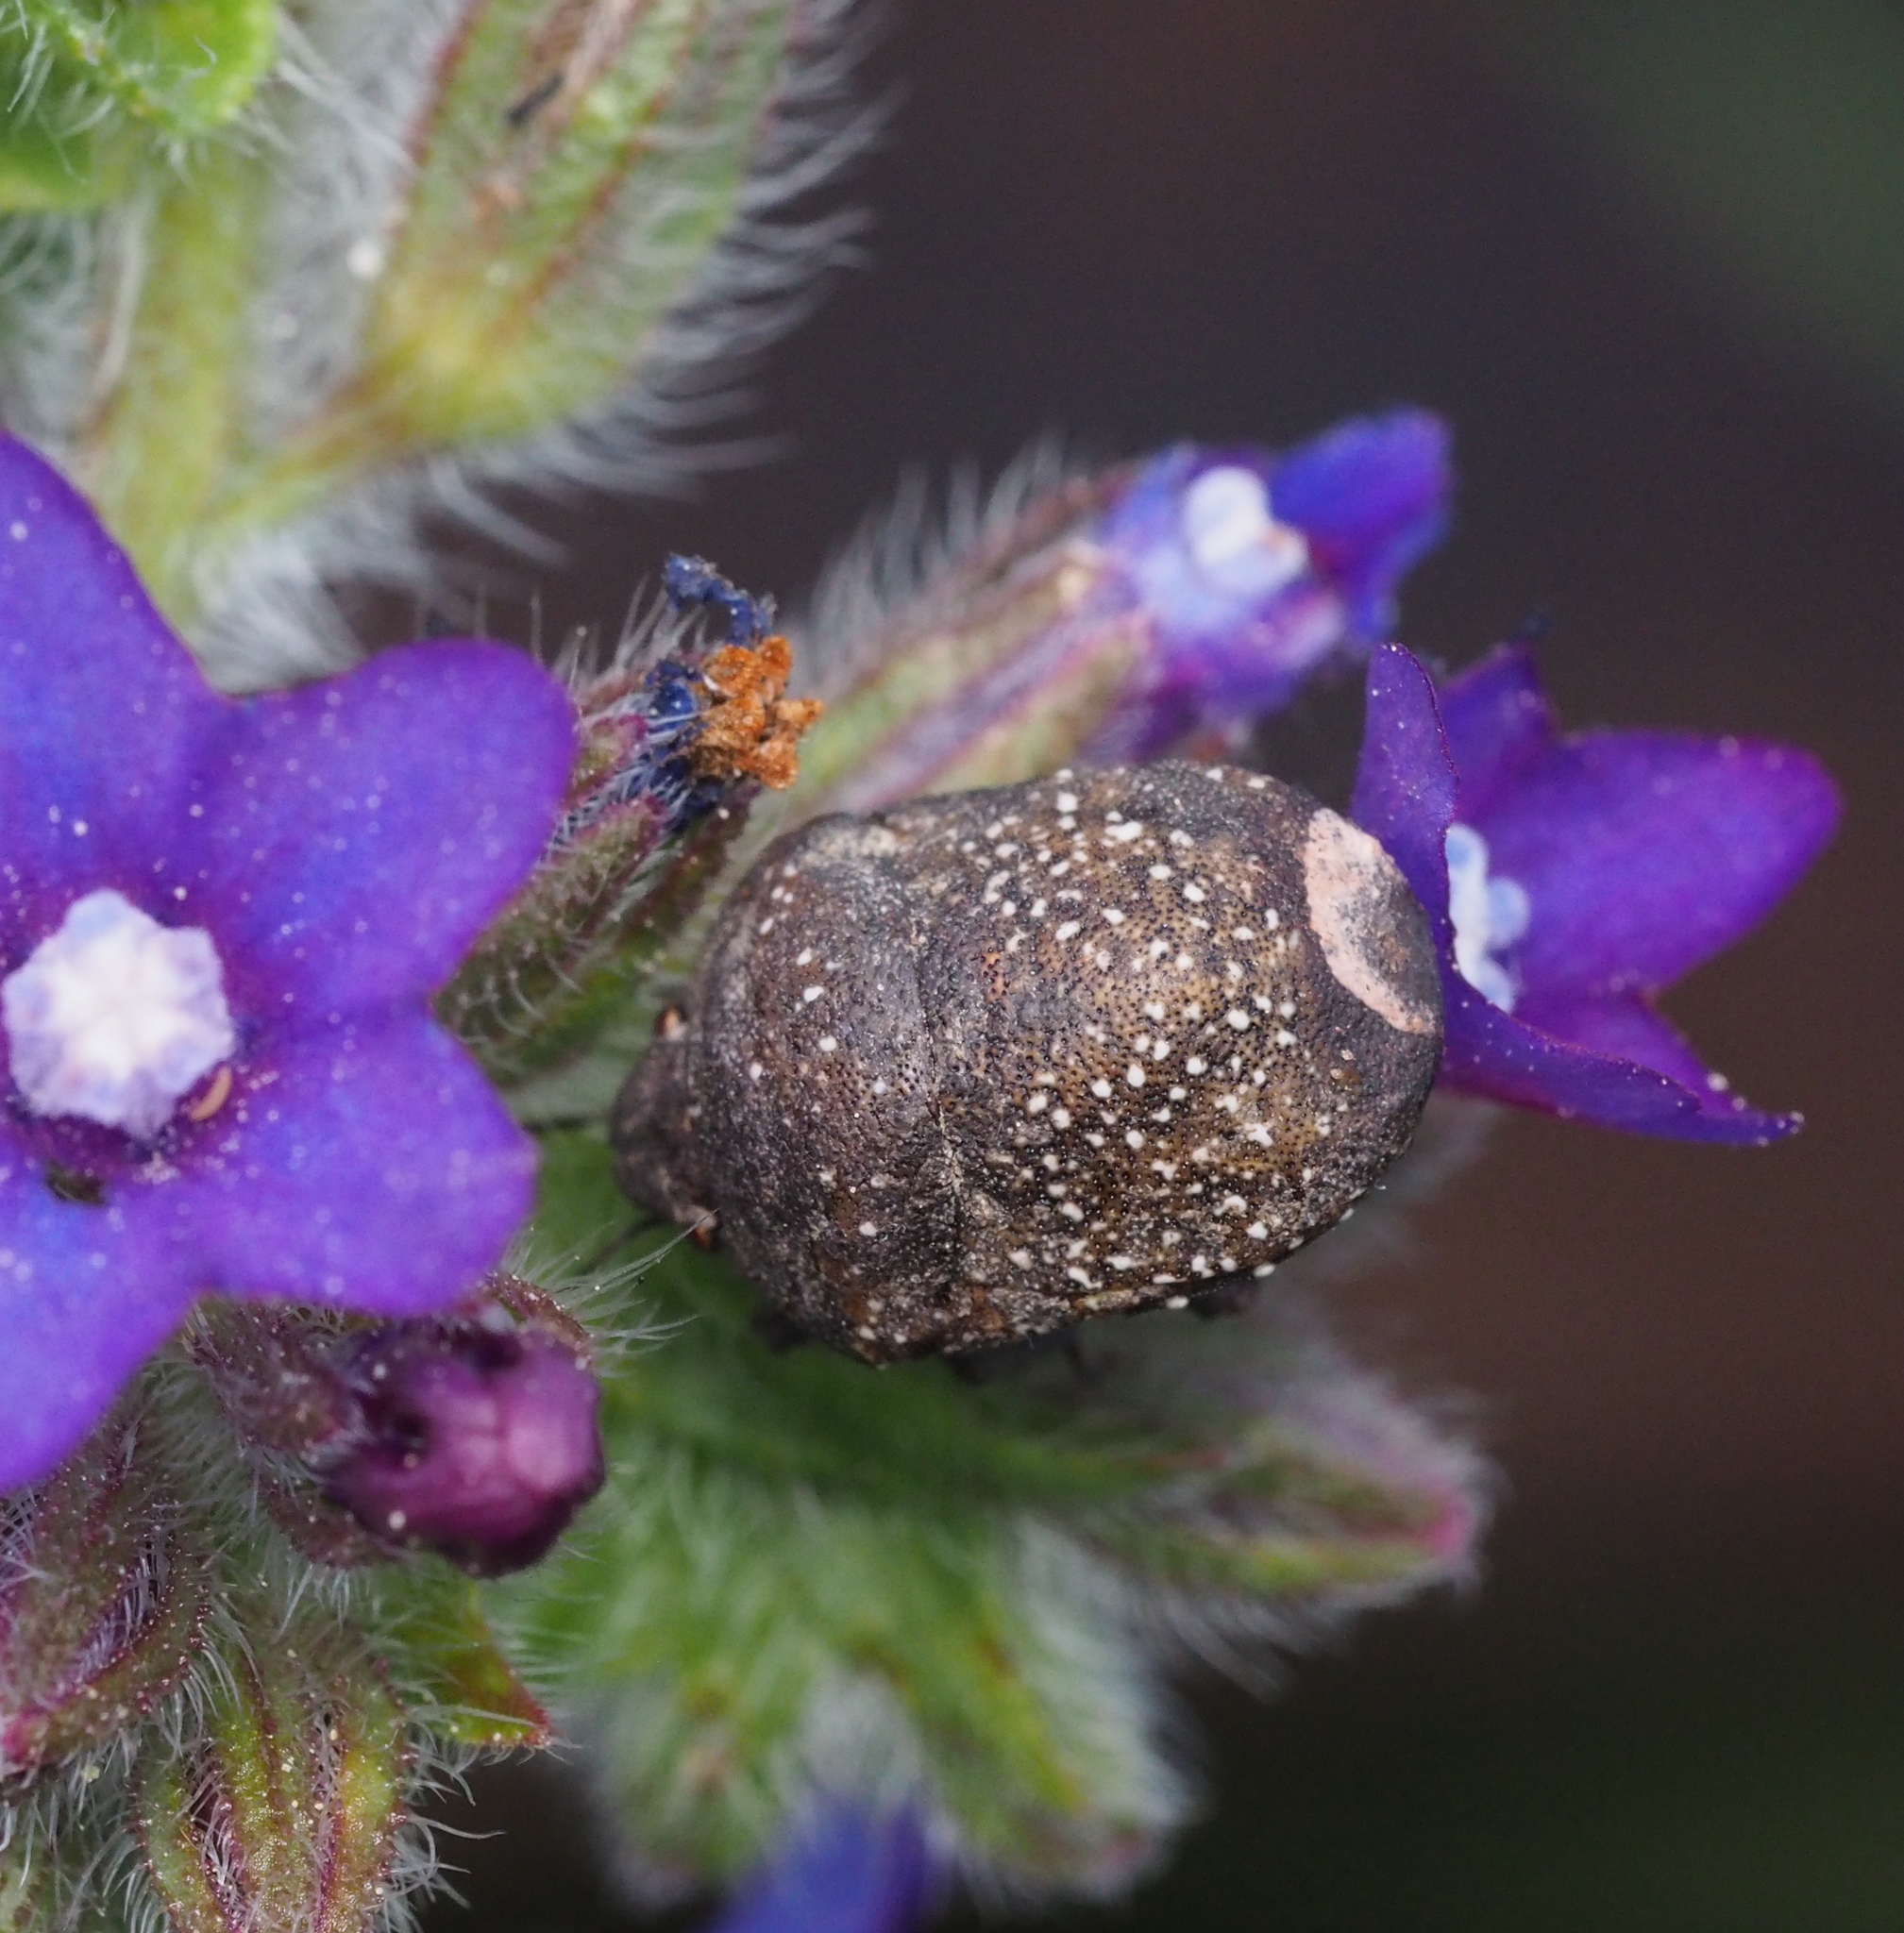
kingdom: Animalia
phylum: Arthropoda
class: Insecta
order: Hemiptera
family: Scutelleridae
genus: Psacasta
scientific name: Psacasta exanthematica
